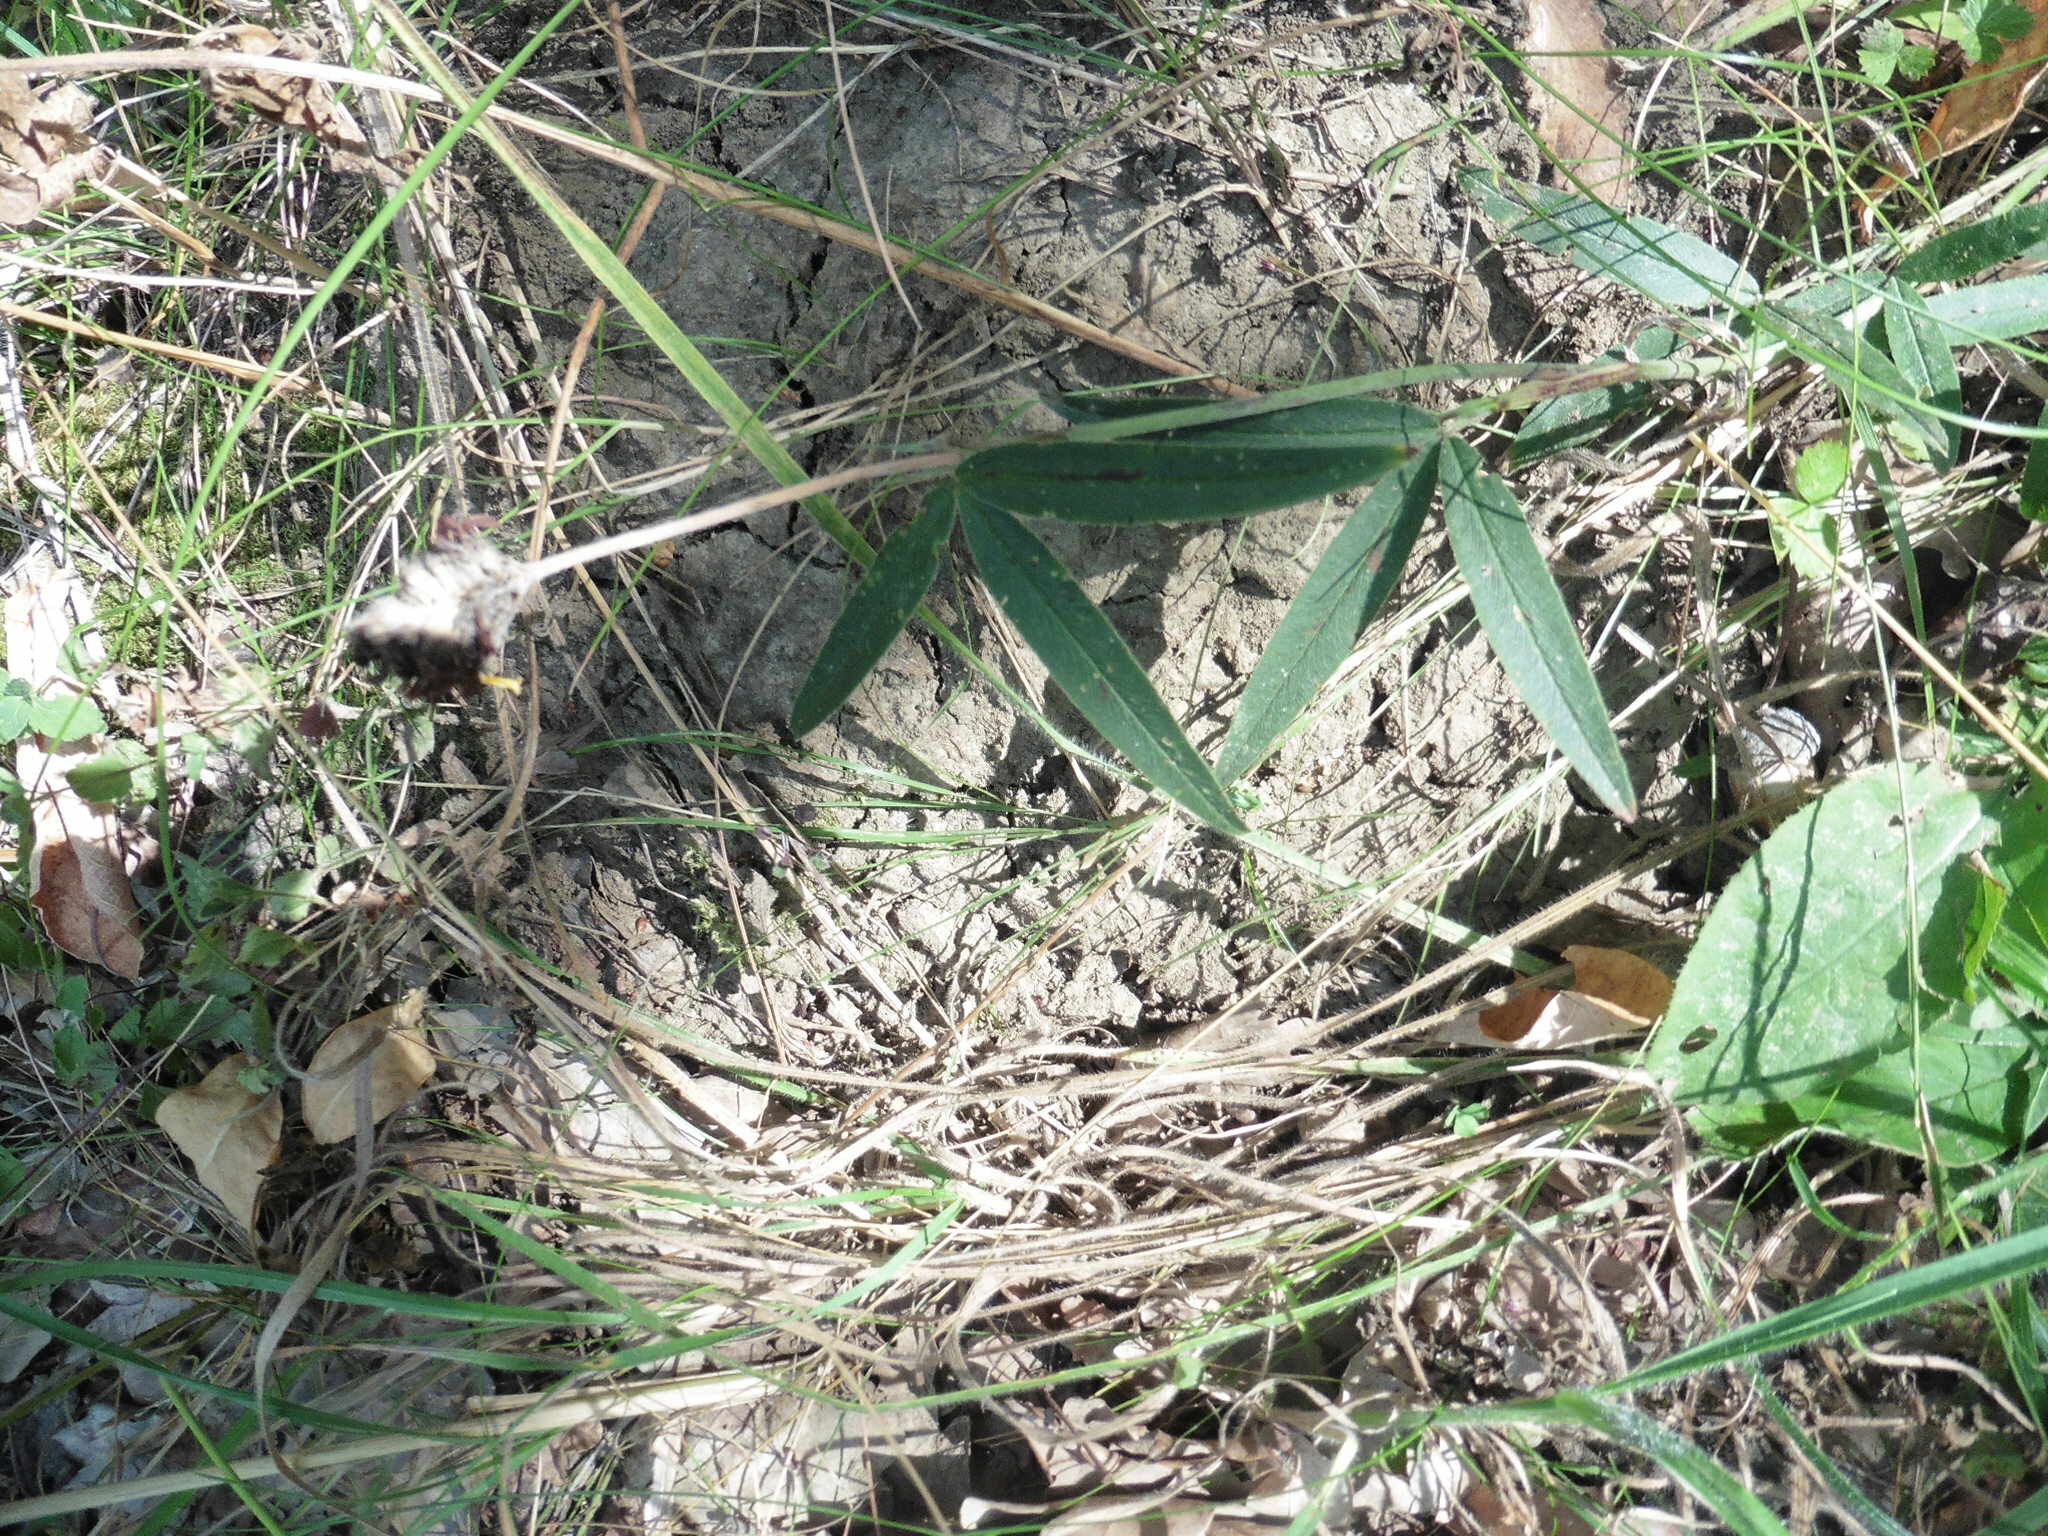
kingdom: Plantae
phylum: Tracheophyta
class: Magnoliopsida
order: Fabales
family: Fabaceae
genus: Trifolium
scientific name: Trifolium alpestre
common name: Owl-head clover
